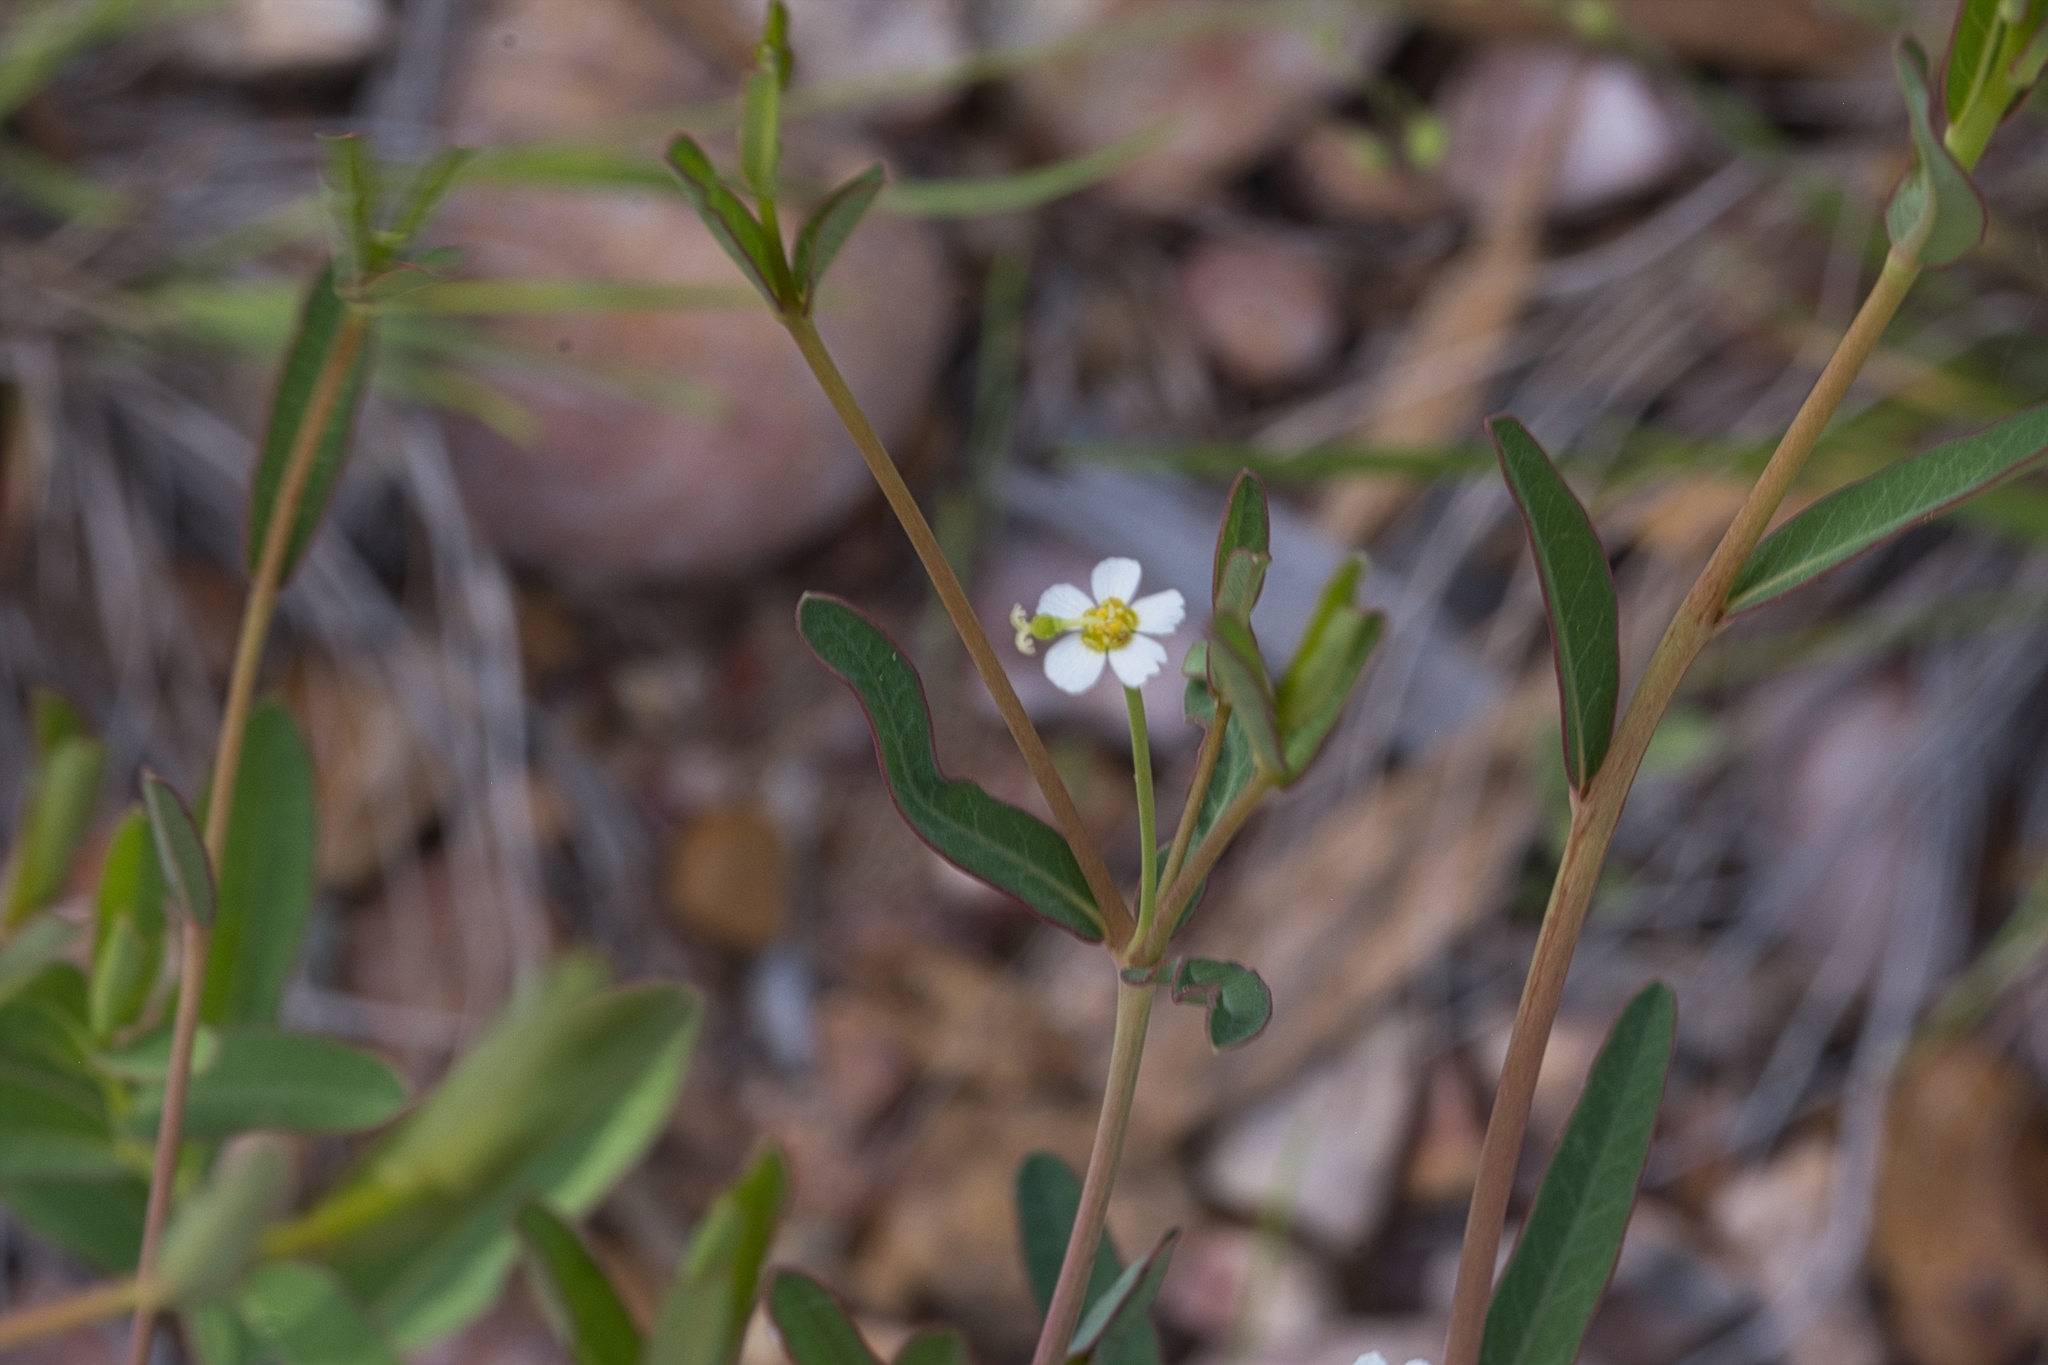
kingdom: Plantae
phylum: Tracheophyta
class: Magnoliopsida
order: Malpighiales
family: Euphorbiaceae
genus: Euphorbia
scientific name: Euphorbia corollata
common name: Flowering spurge
